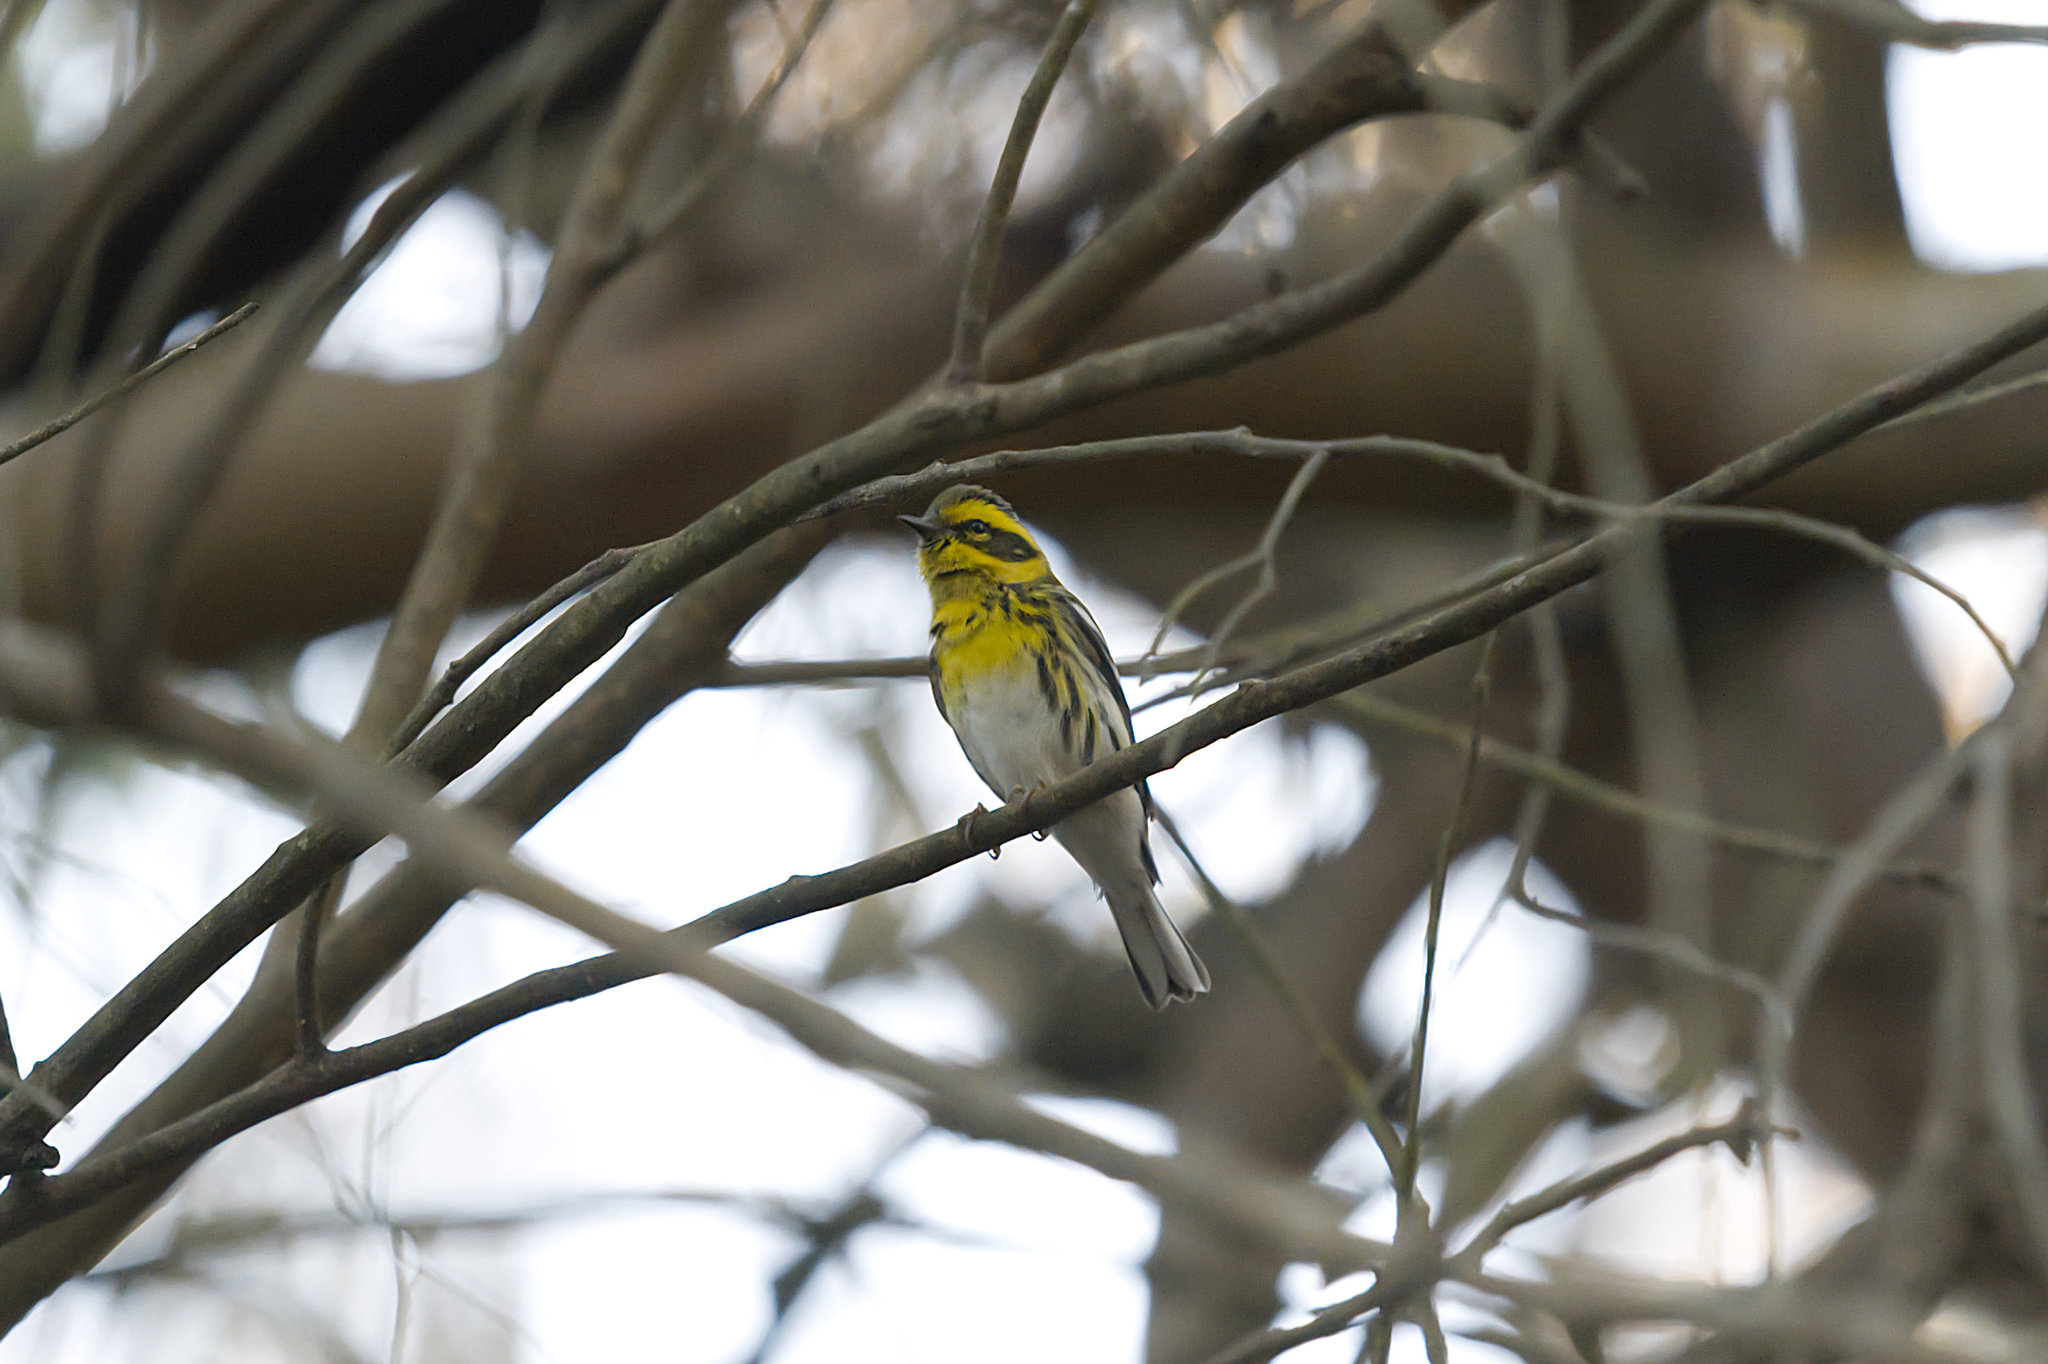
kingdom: Animalia
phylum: Chordata
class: Aves
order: Passeriformes
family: Parulidae
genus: Setophaga
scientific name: Setophaga townsendi
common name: Townsend's warbler
